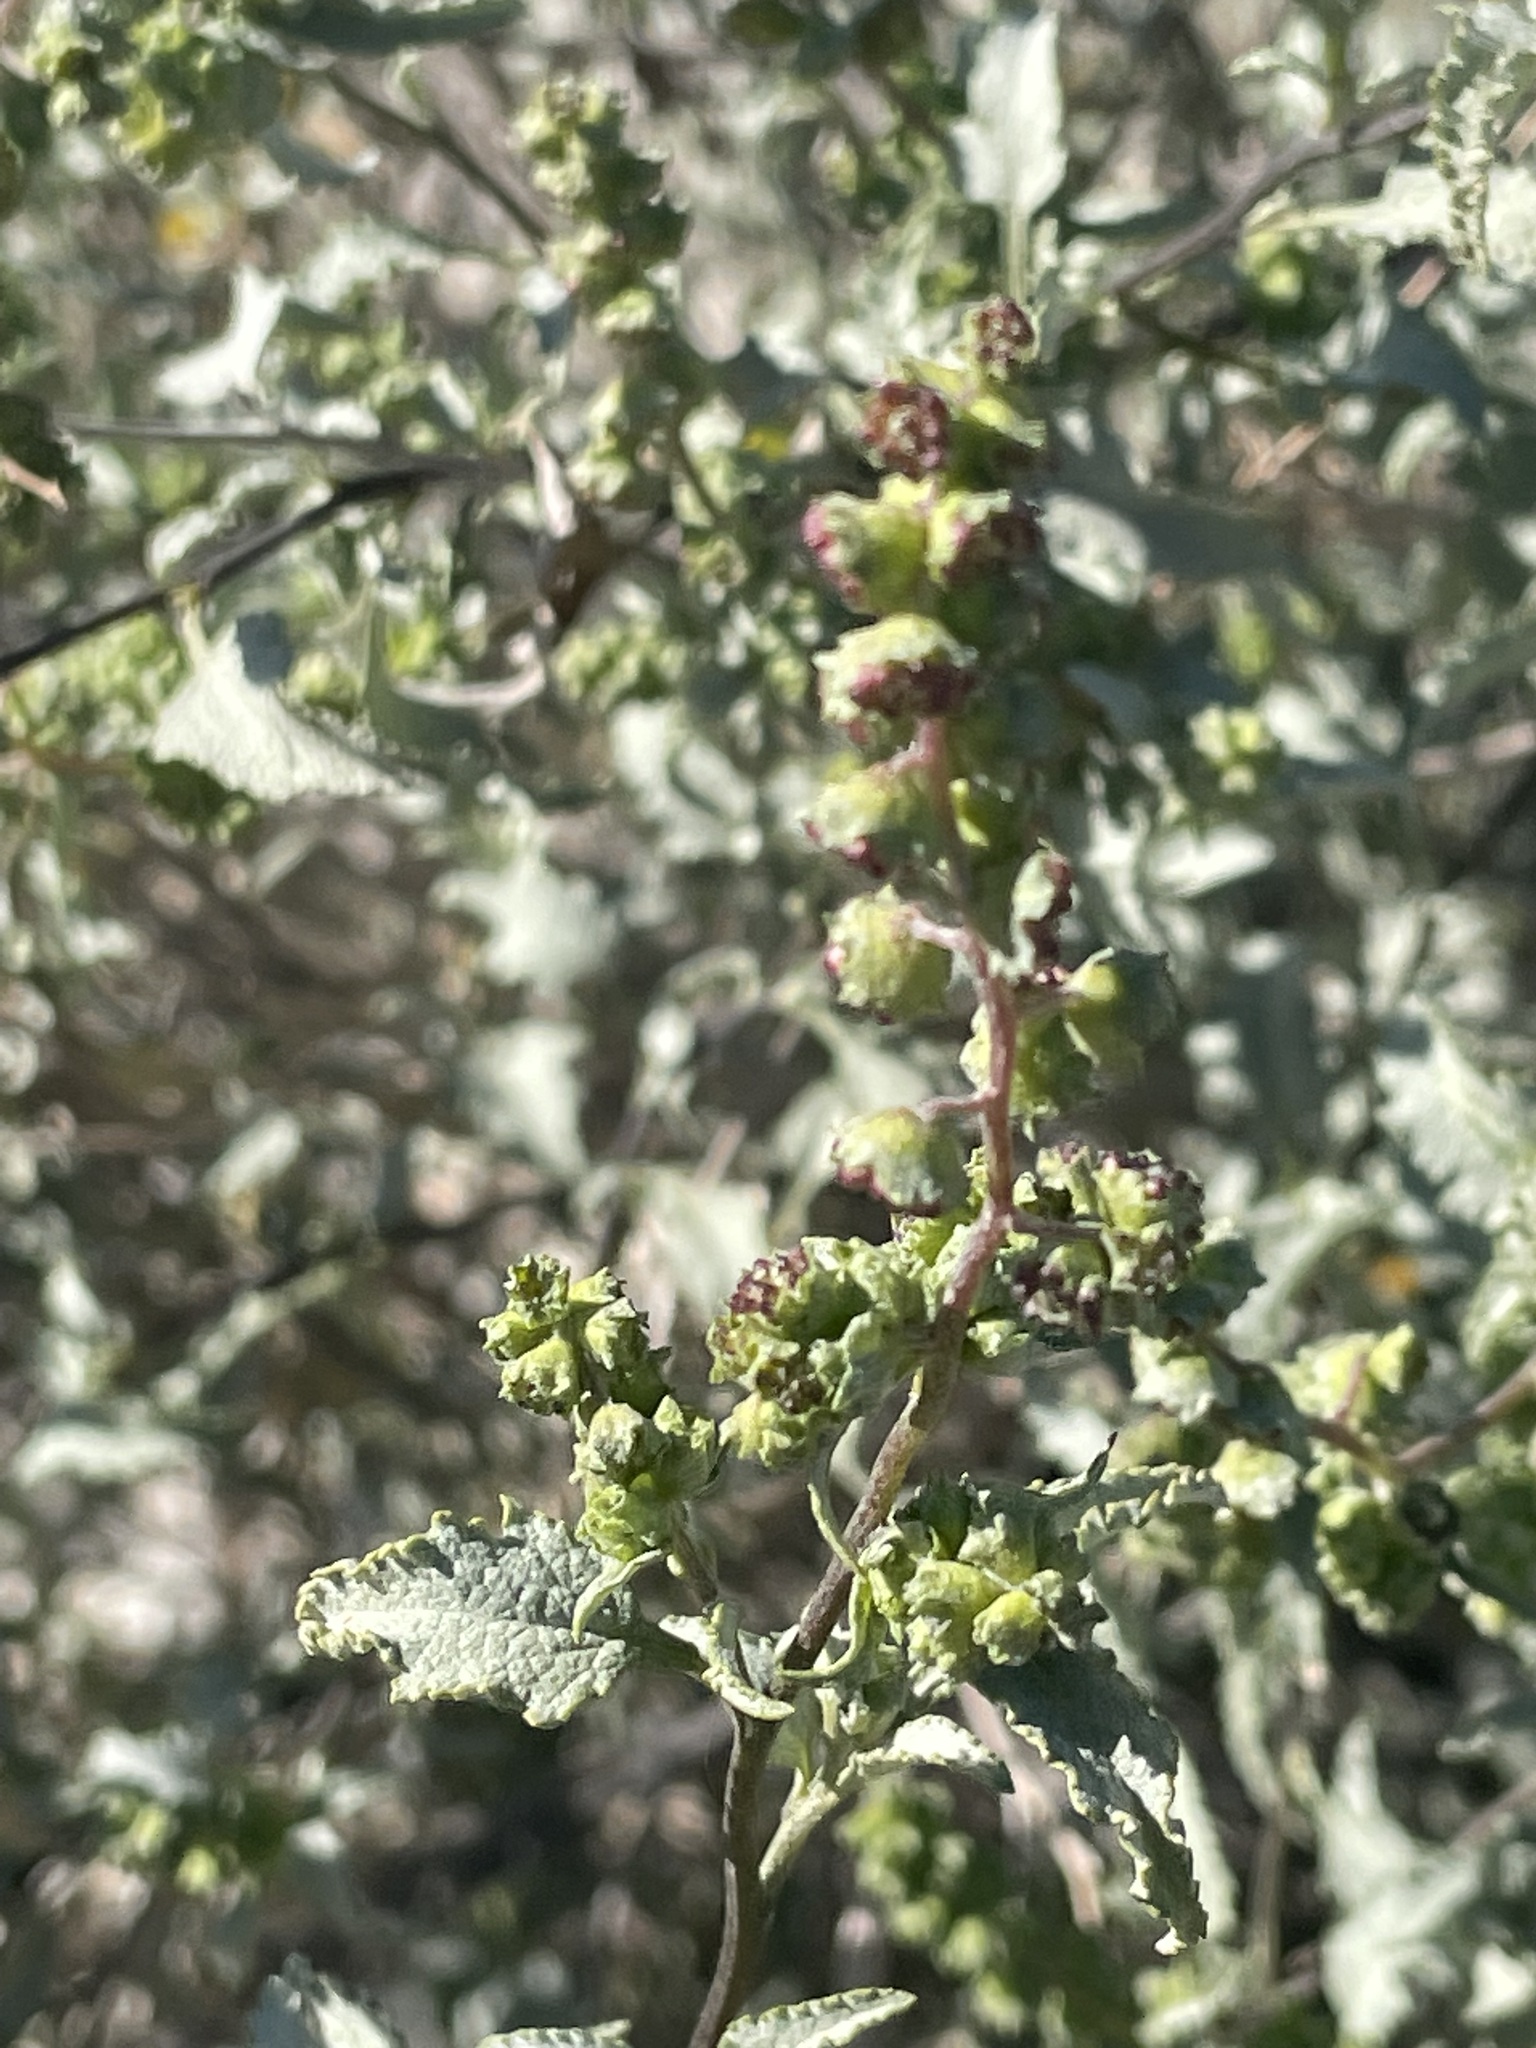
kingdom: Plantae
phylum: Tracheophyta
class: Magnoliopsida
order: Asterales
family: Asteraceae
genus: Ambrosia
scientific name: Ambrosia deltoidea
